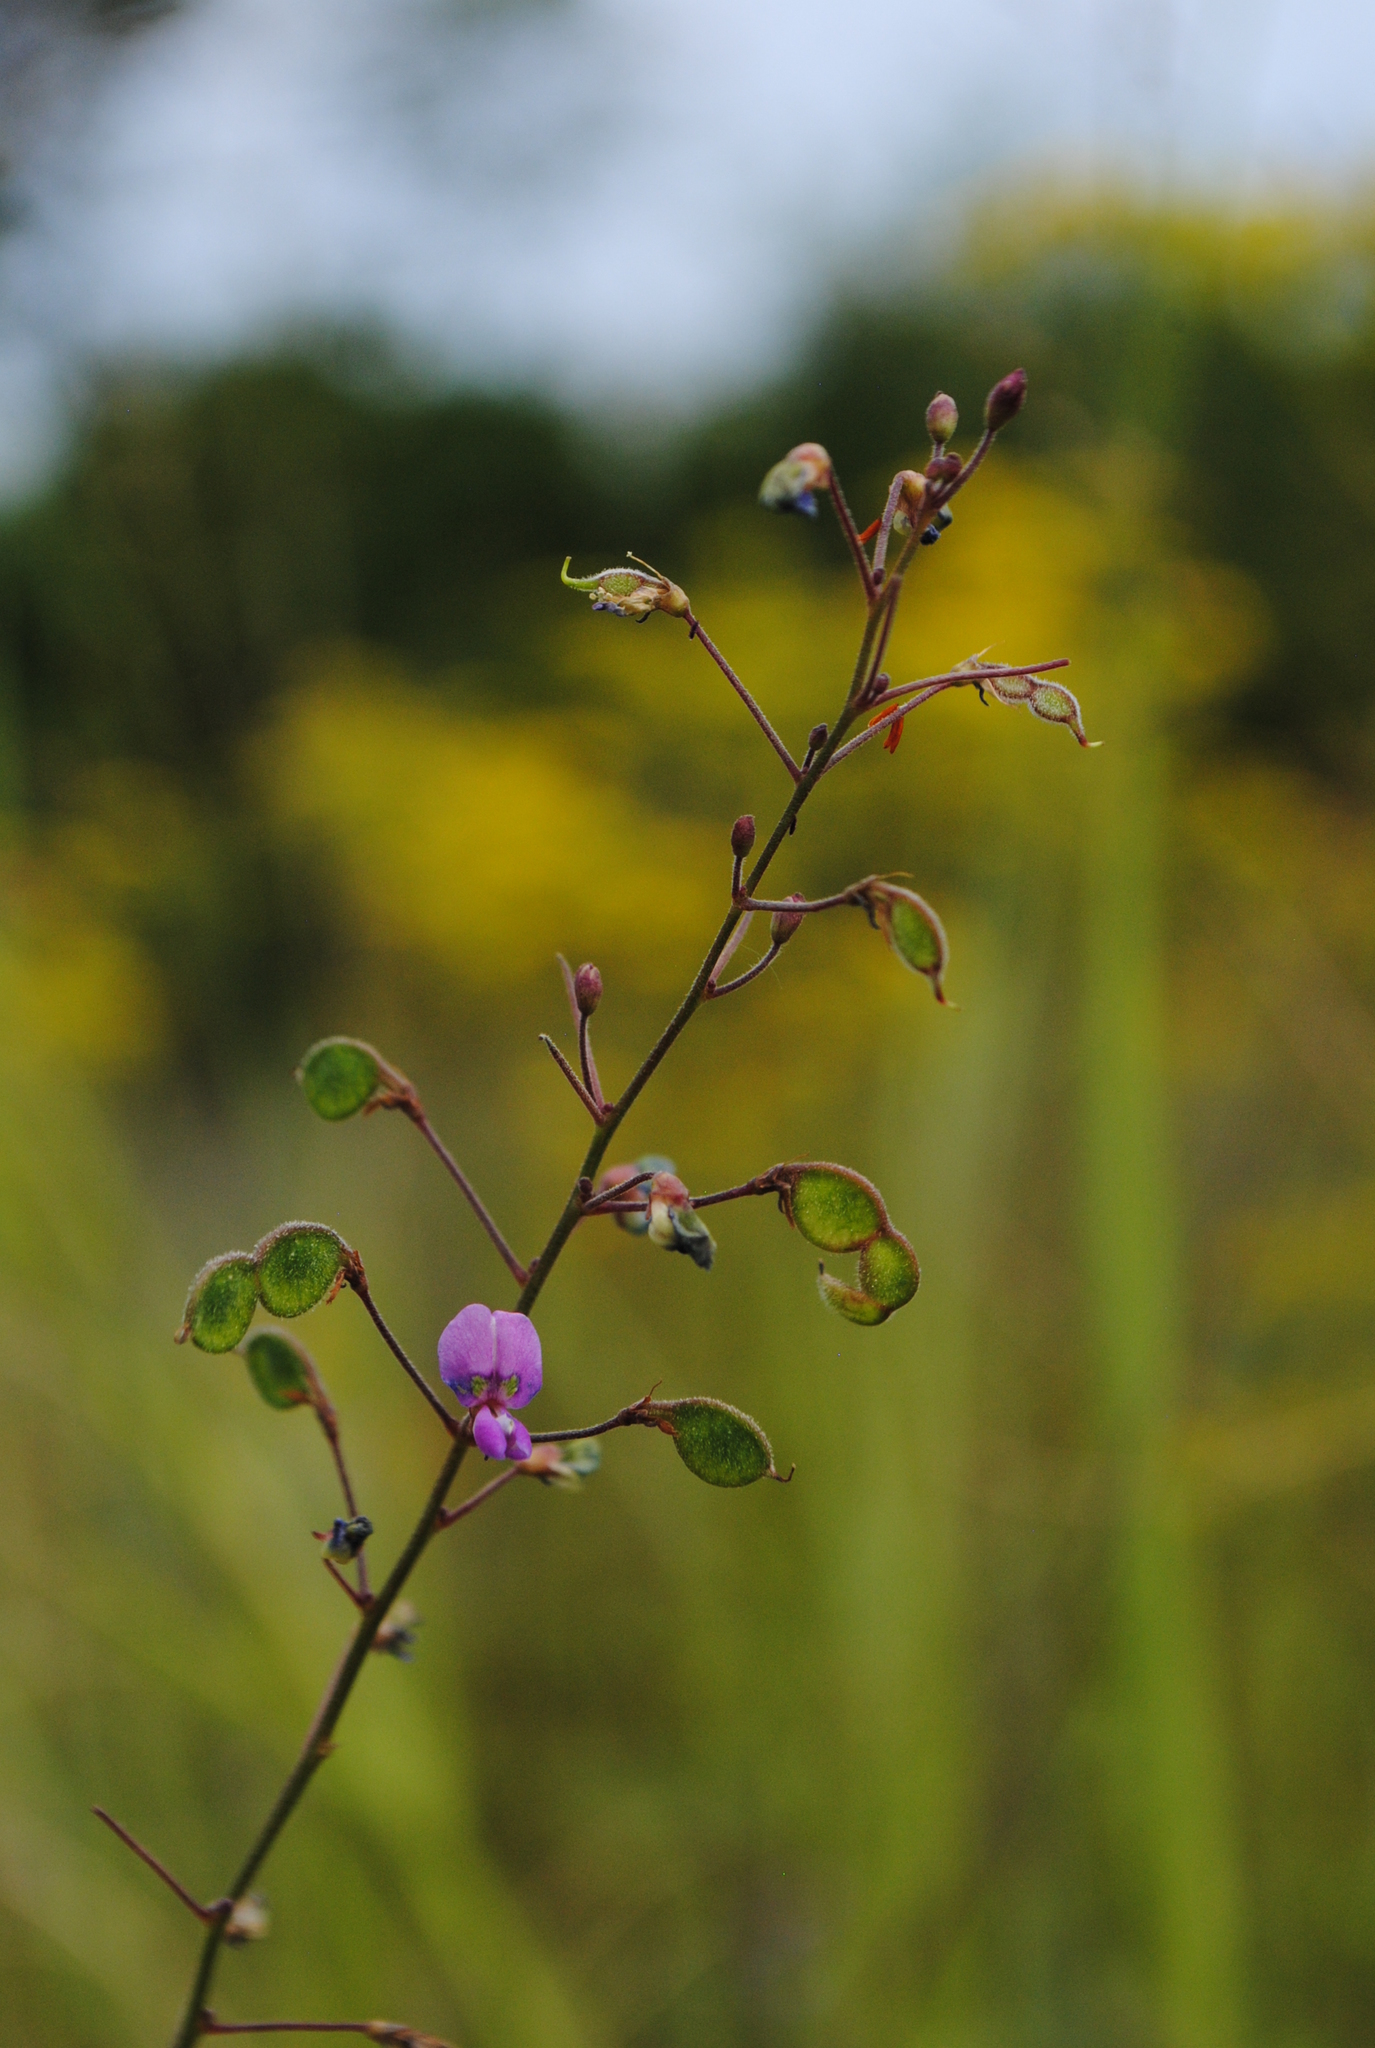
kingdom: Plantae
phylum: Tracheophyta
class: Magnoliopsida
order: Fabales
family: Fabaceae
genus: Desmodium
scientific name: Desmodium marilandicum
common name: Maryland tick-trefoil
